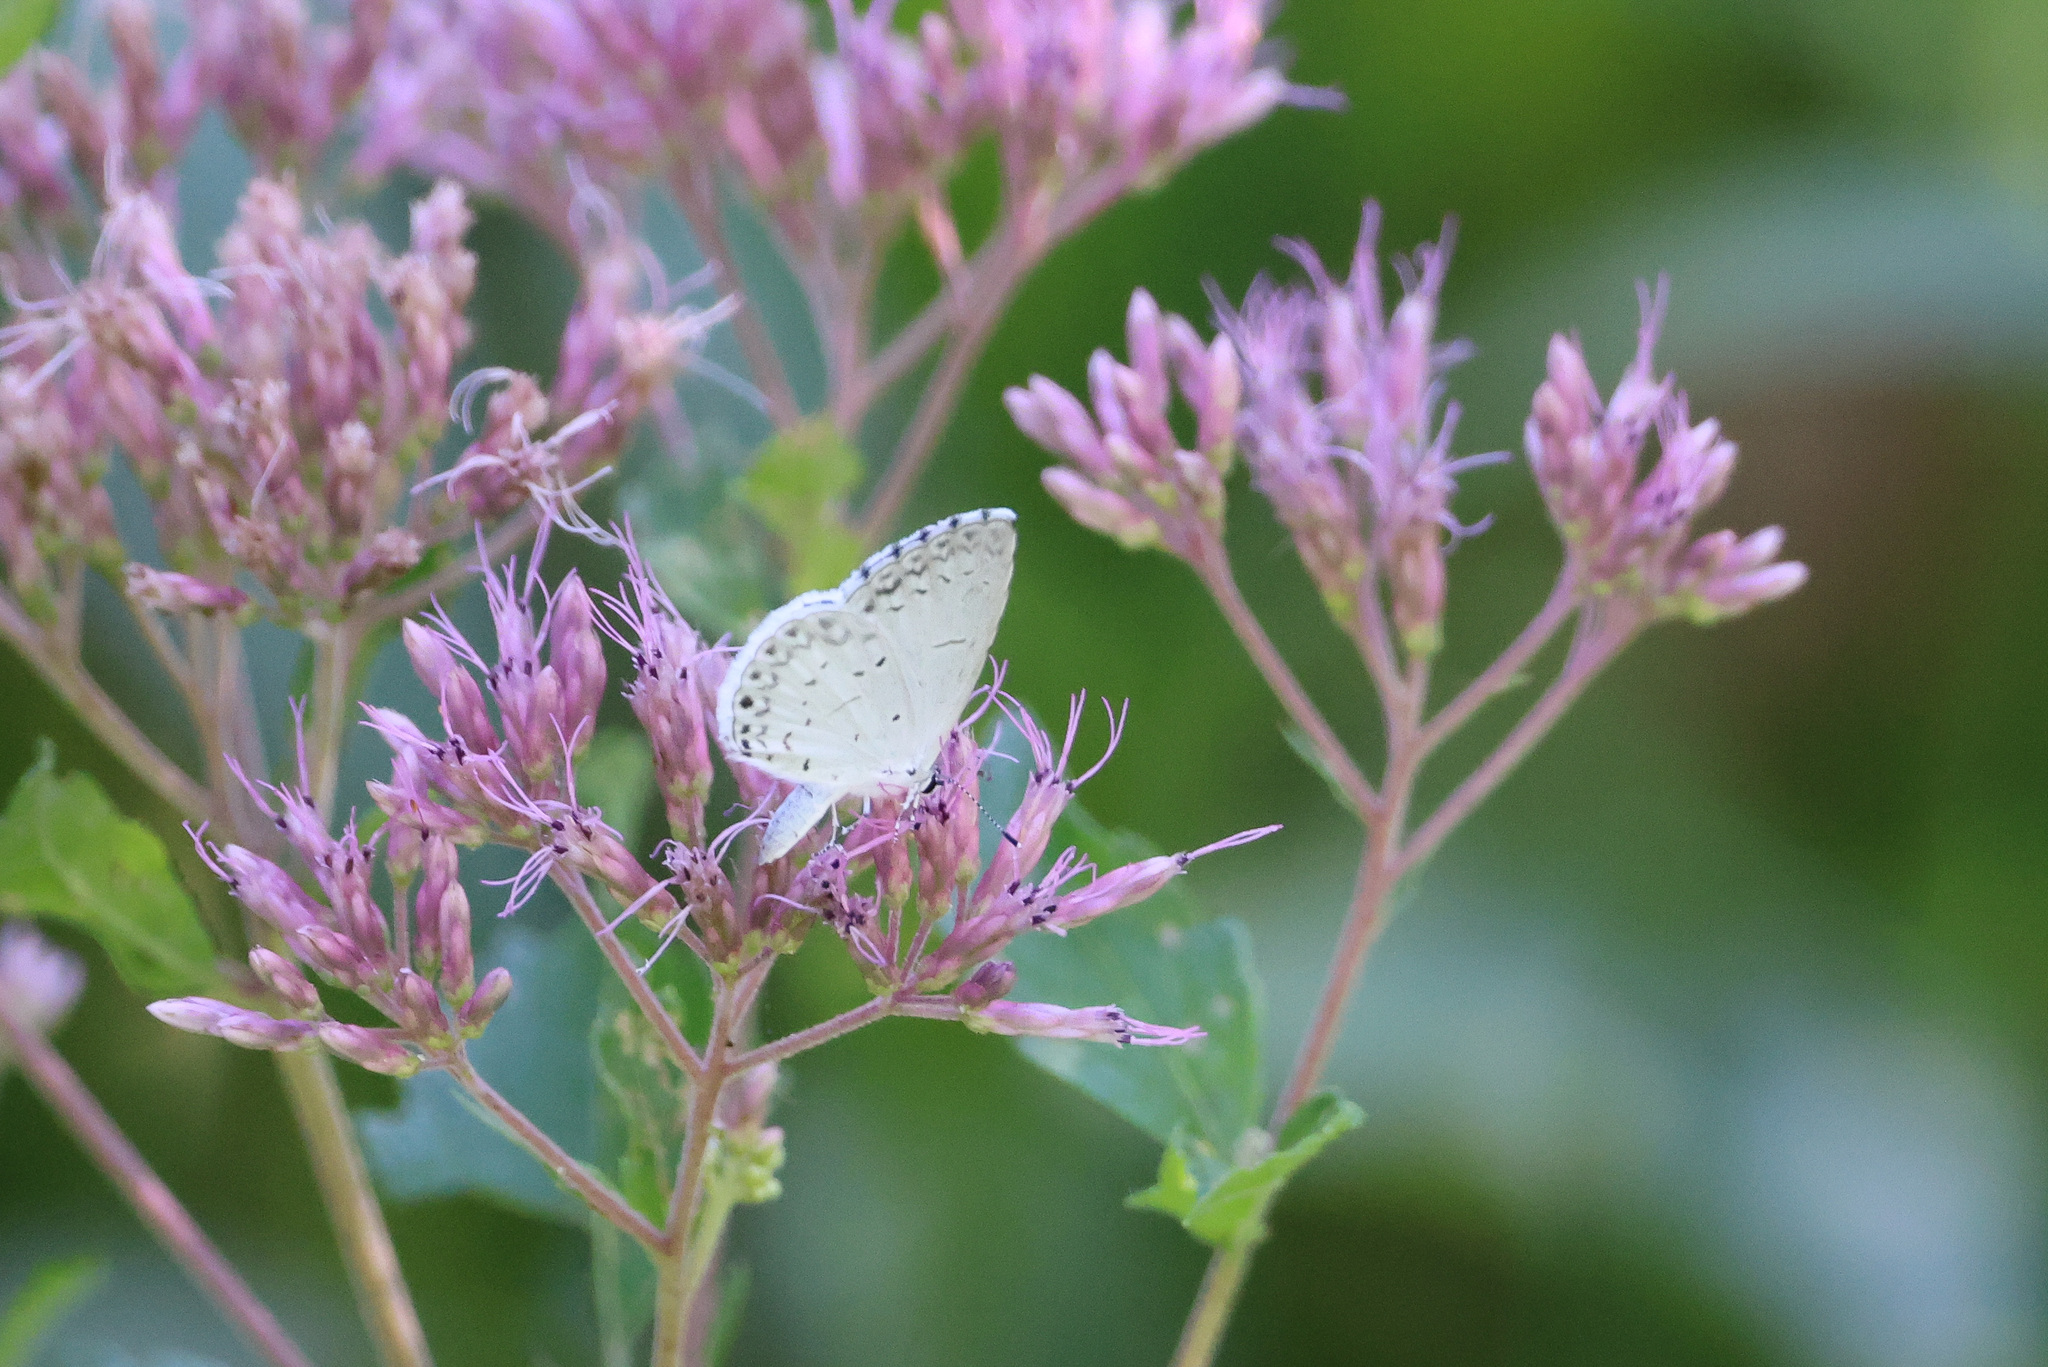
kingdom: Animalia
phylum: Arthropoda
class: Insecta
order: Lepidoptera
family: Lycaenidae
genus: Cyaniris
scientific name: Cyaniris neglecta
